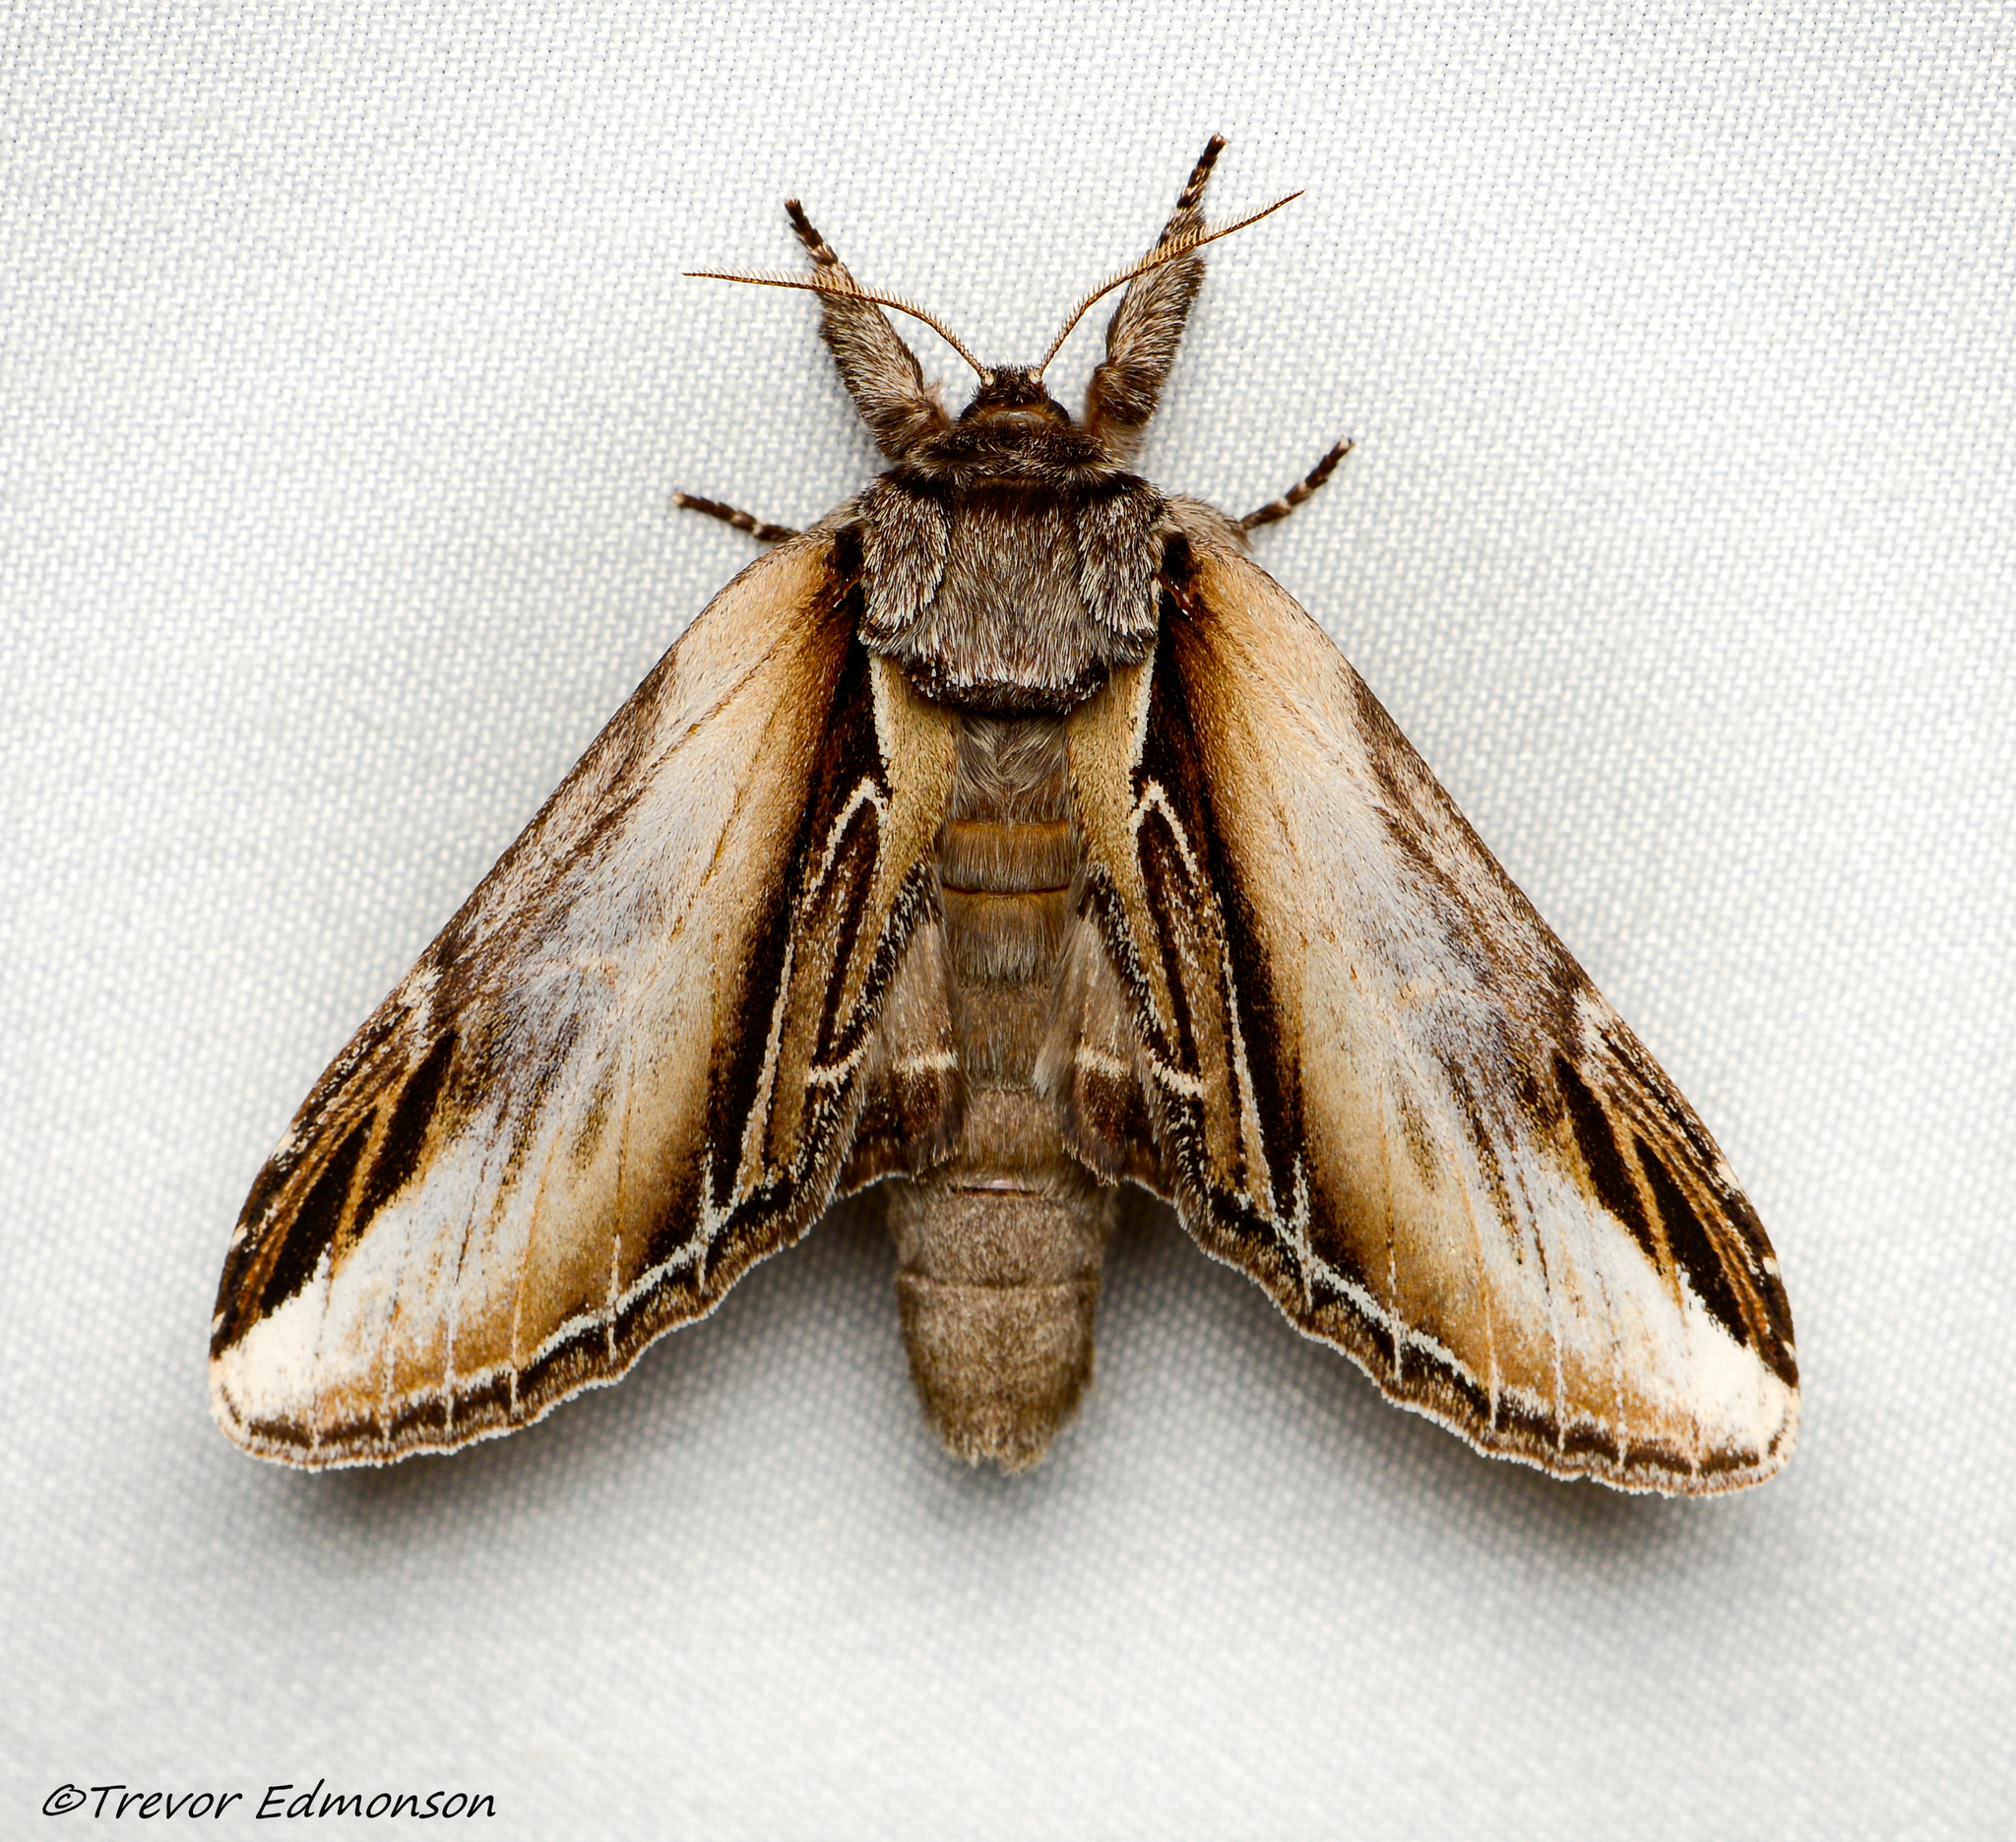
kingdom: Animalia
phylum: Arthropoda
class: Insecta
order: Lepidoptera
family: Notodontidae
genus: Pheosia
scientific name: Pheosia rimosa
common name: Black-rimmed prominent
